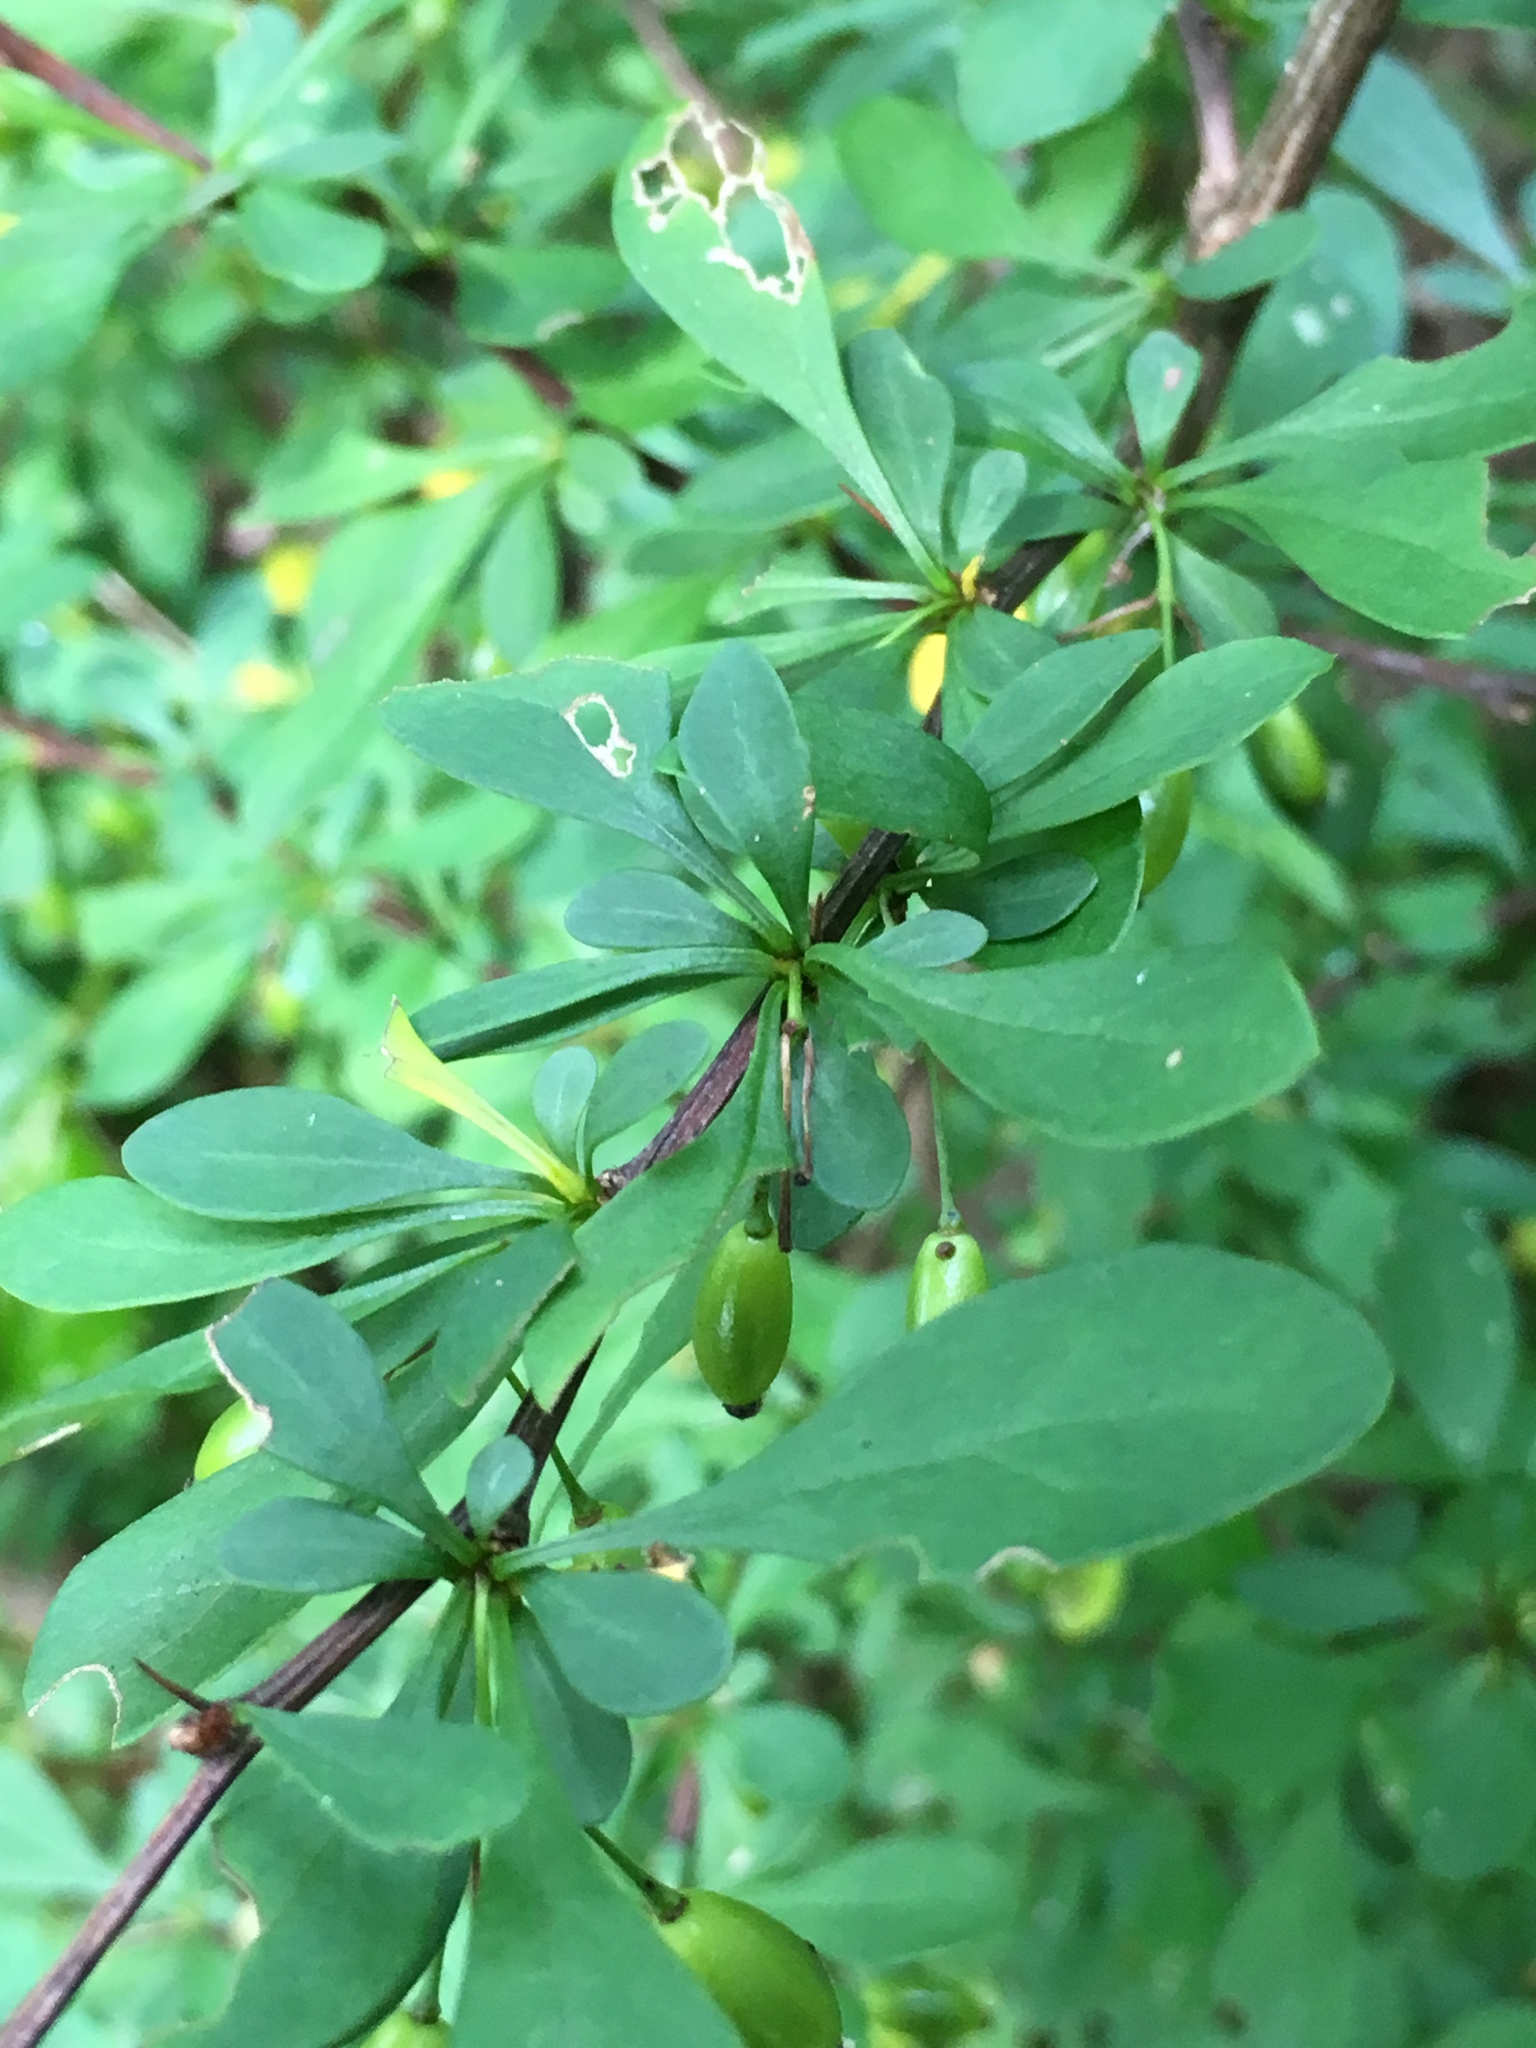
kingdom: Plantae
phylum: Tracheophyta
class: Magnoliopsida
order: Ranunculales
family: Berberidaceae
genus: Berberis
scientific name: Berberis thunbergii
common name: Japanese barberry
